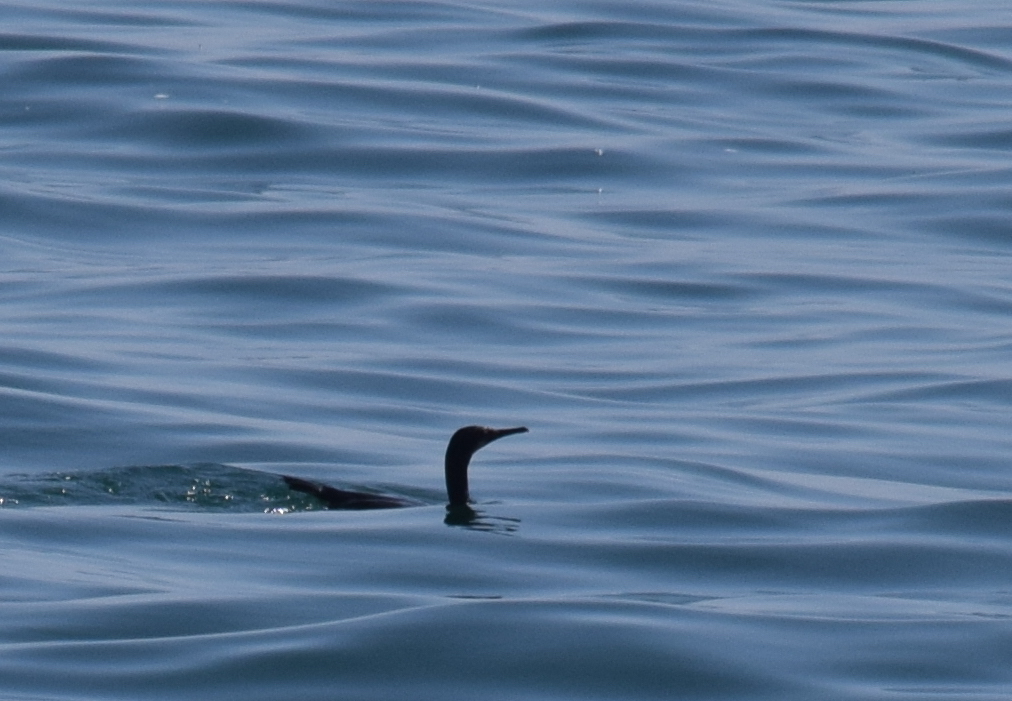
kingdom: Animalia
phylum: Chordata
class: Aves
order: Suliformes
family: Phalacrocoracidae
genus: Urile
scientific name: Urile penicillatus
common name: Brandt's cormorant
